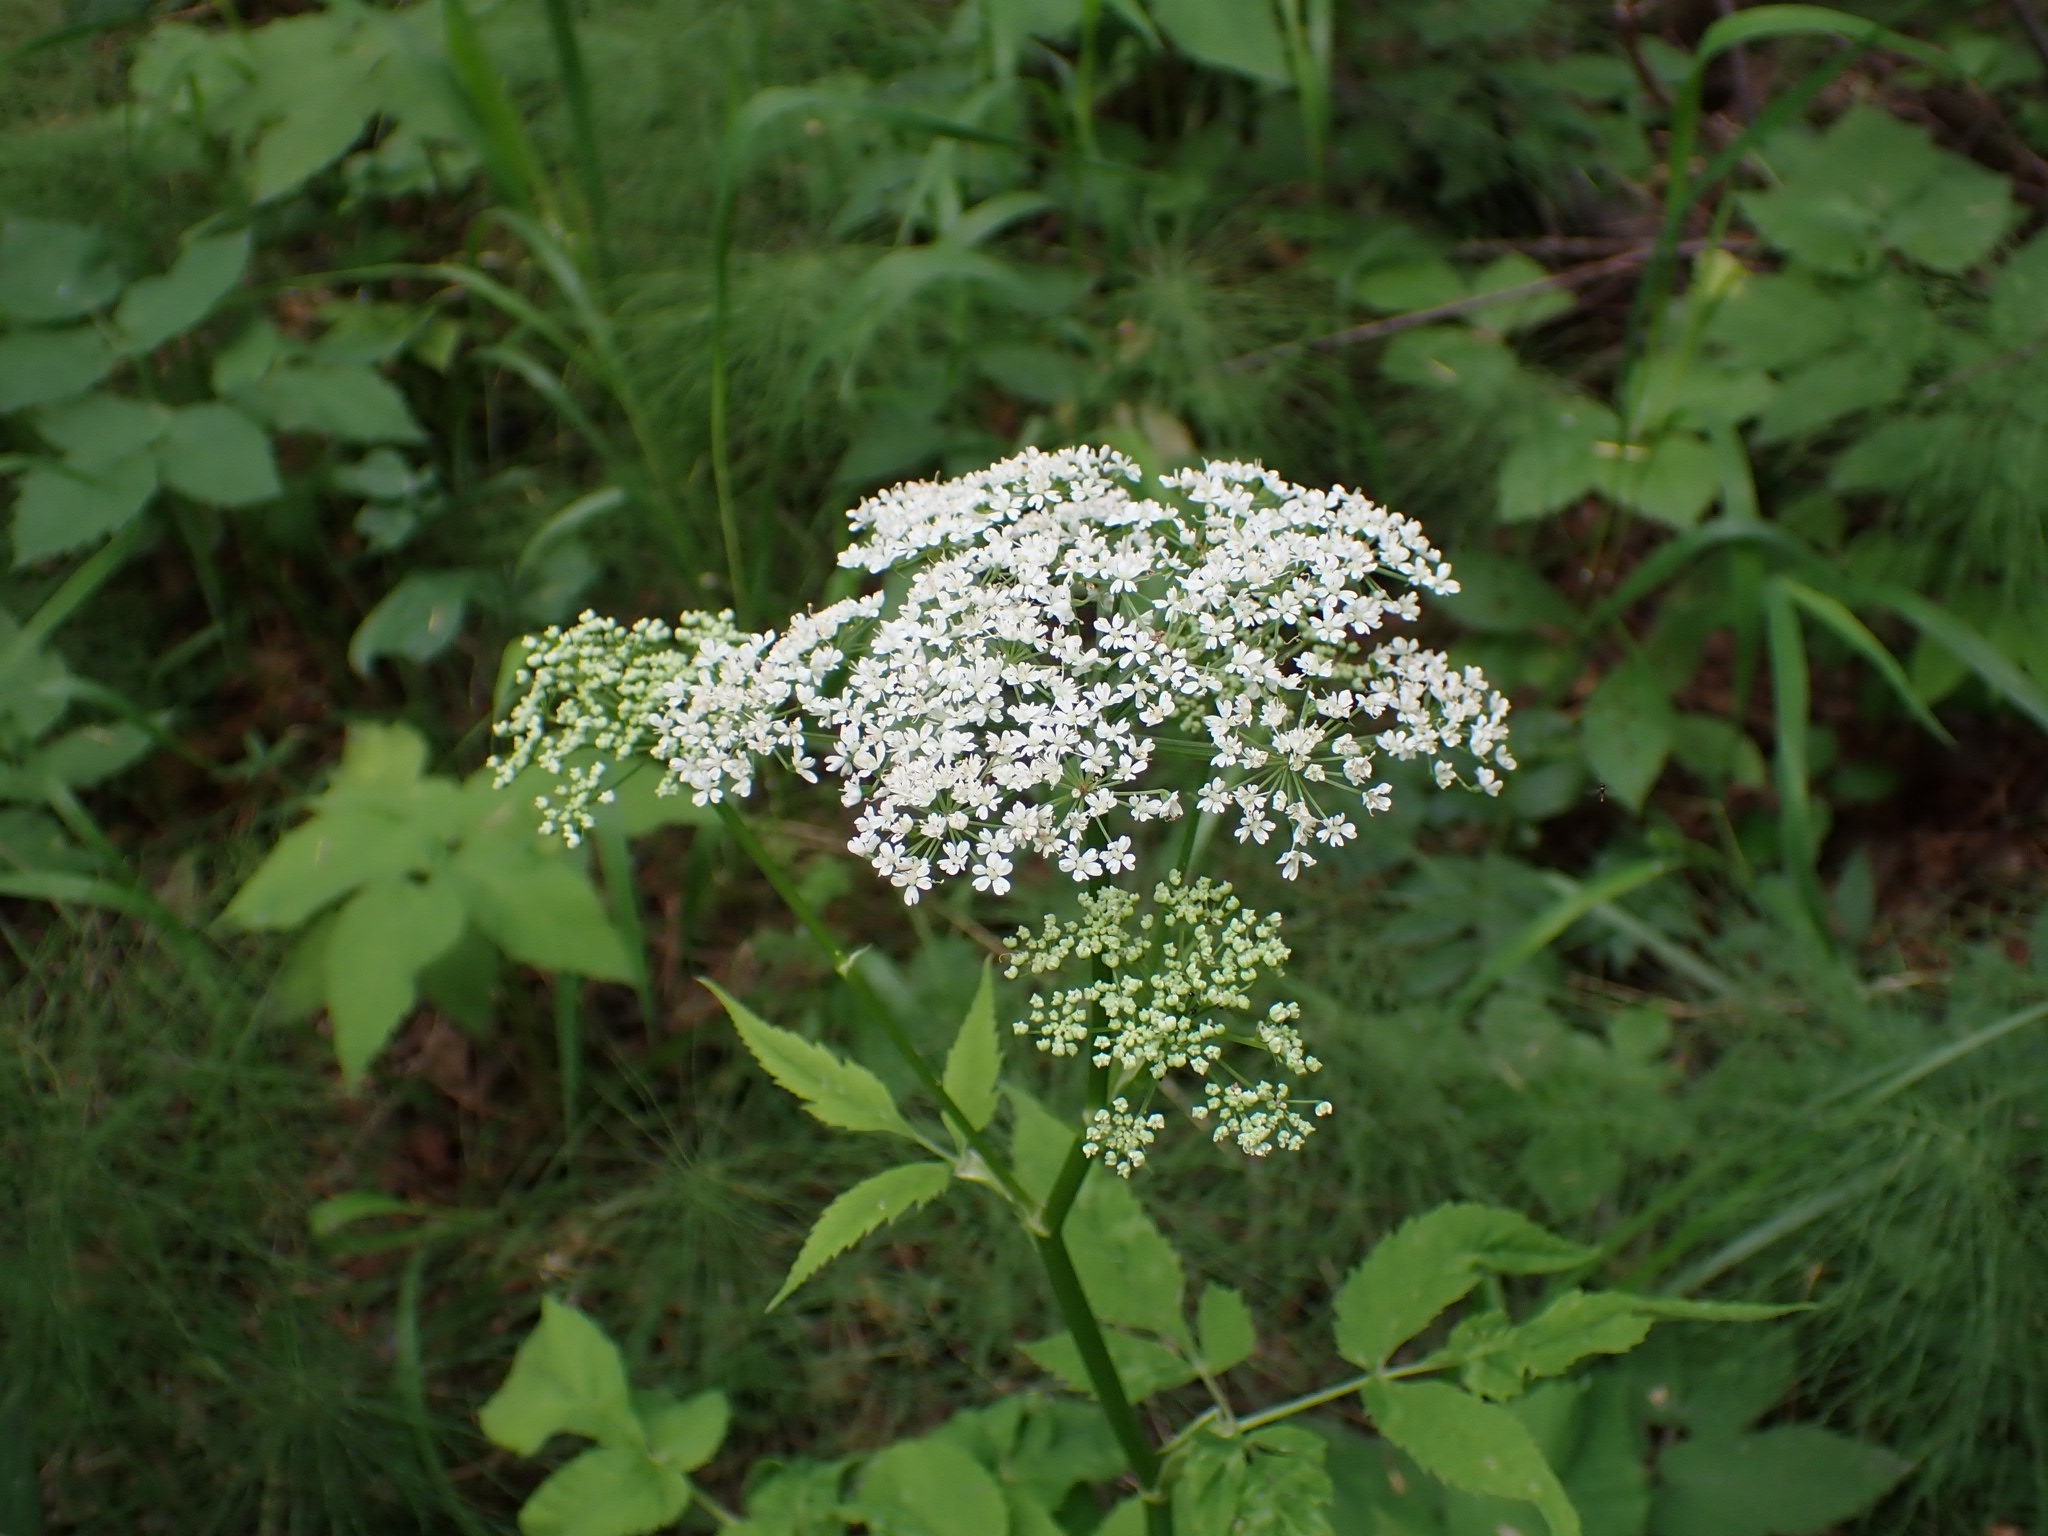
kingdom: Plantae
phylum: Tracheophyta
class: Magnoliopsida
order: Apiales
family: Apiaceae
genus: Aegopodium
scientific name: Aegopodium podagraria
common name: Ground-elder
